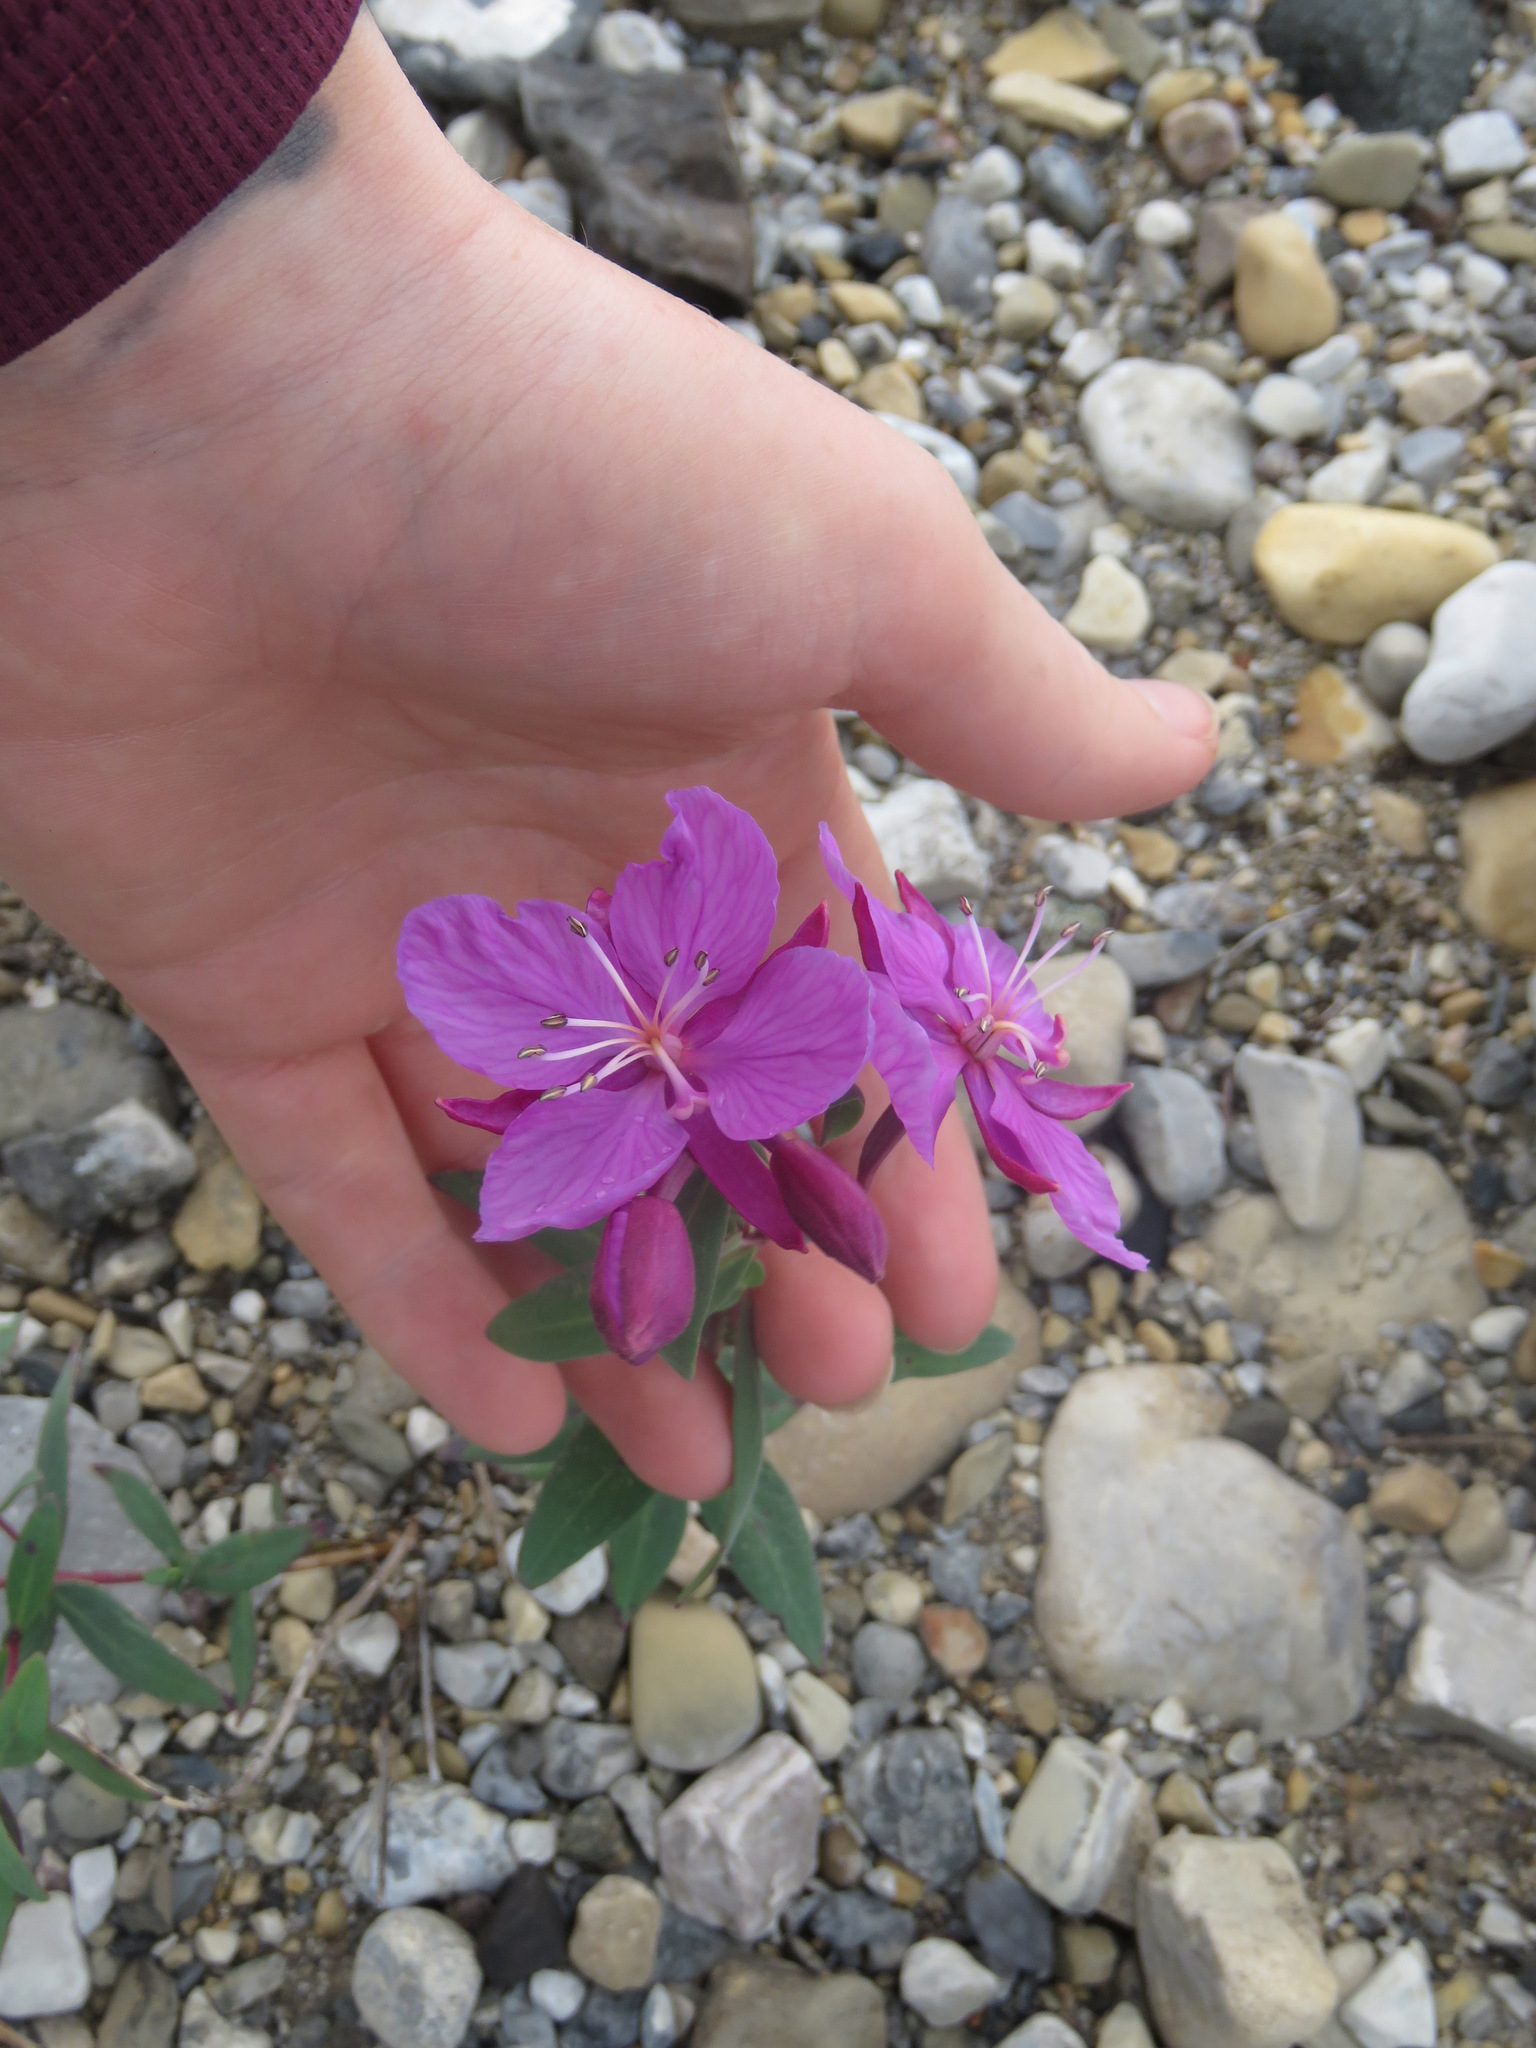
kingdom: Plantae
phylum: Tracheophyta
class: Magnoliopsida
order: Myrtales
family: Onagraceae
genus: Chamaenerion
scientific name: Chamaenerion latifolium
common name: Dwarf fireweed
